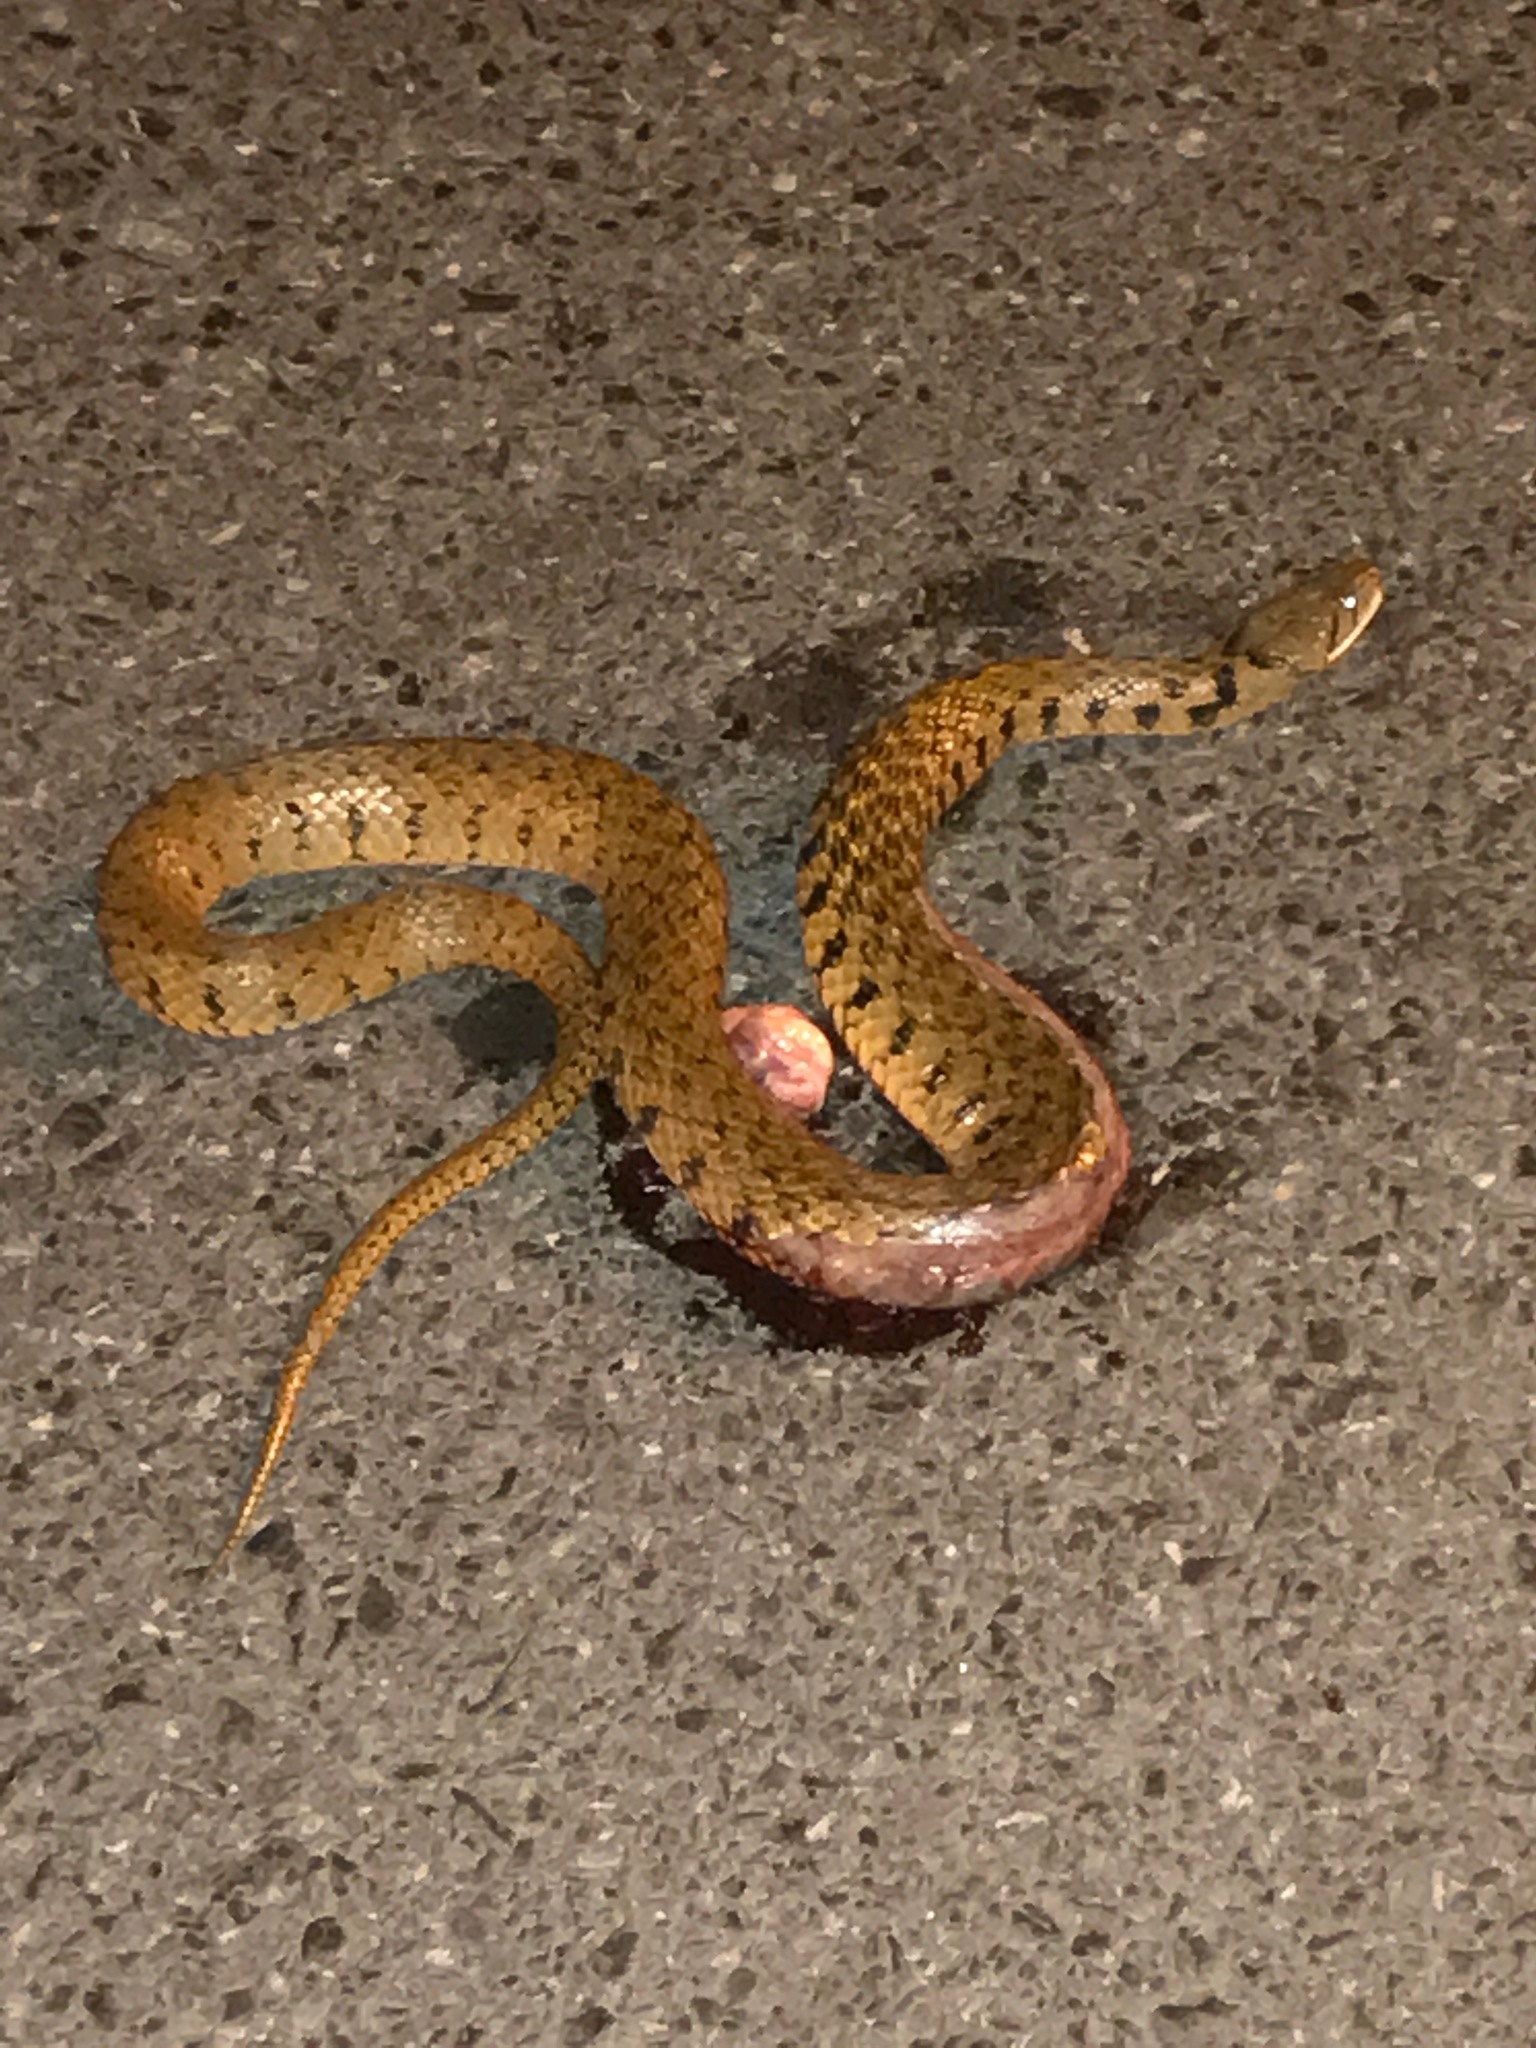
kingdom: Animalia
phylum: Chordata
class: Squamata
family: Colubridae
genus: Fowlea
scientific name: Fowlea flavipunctatus
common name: Yellow-spotted keelback
